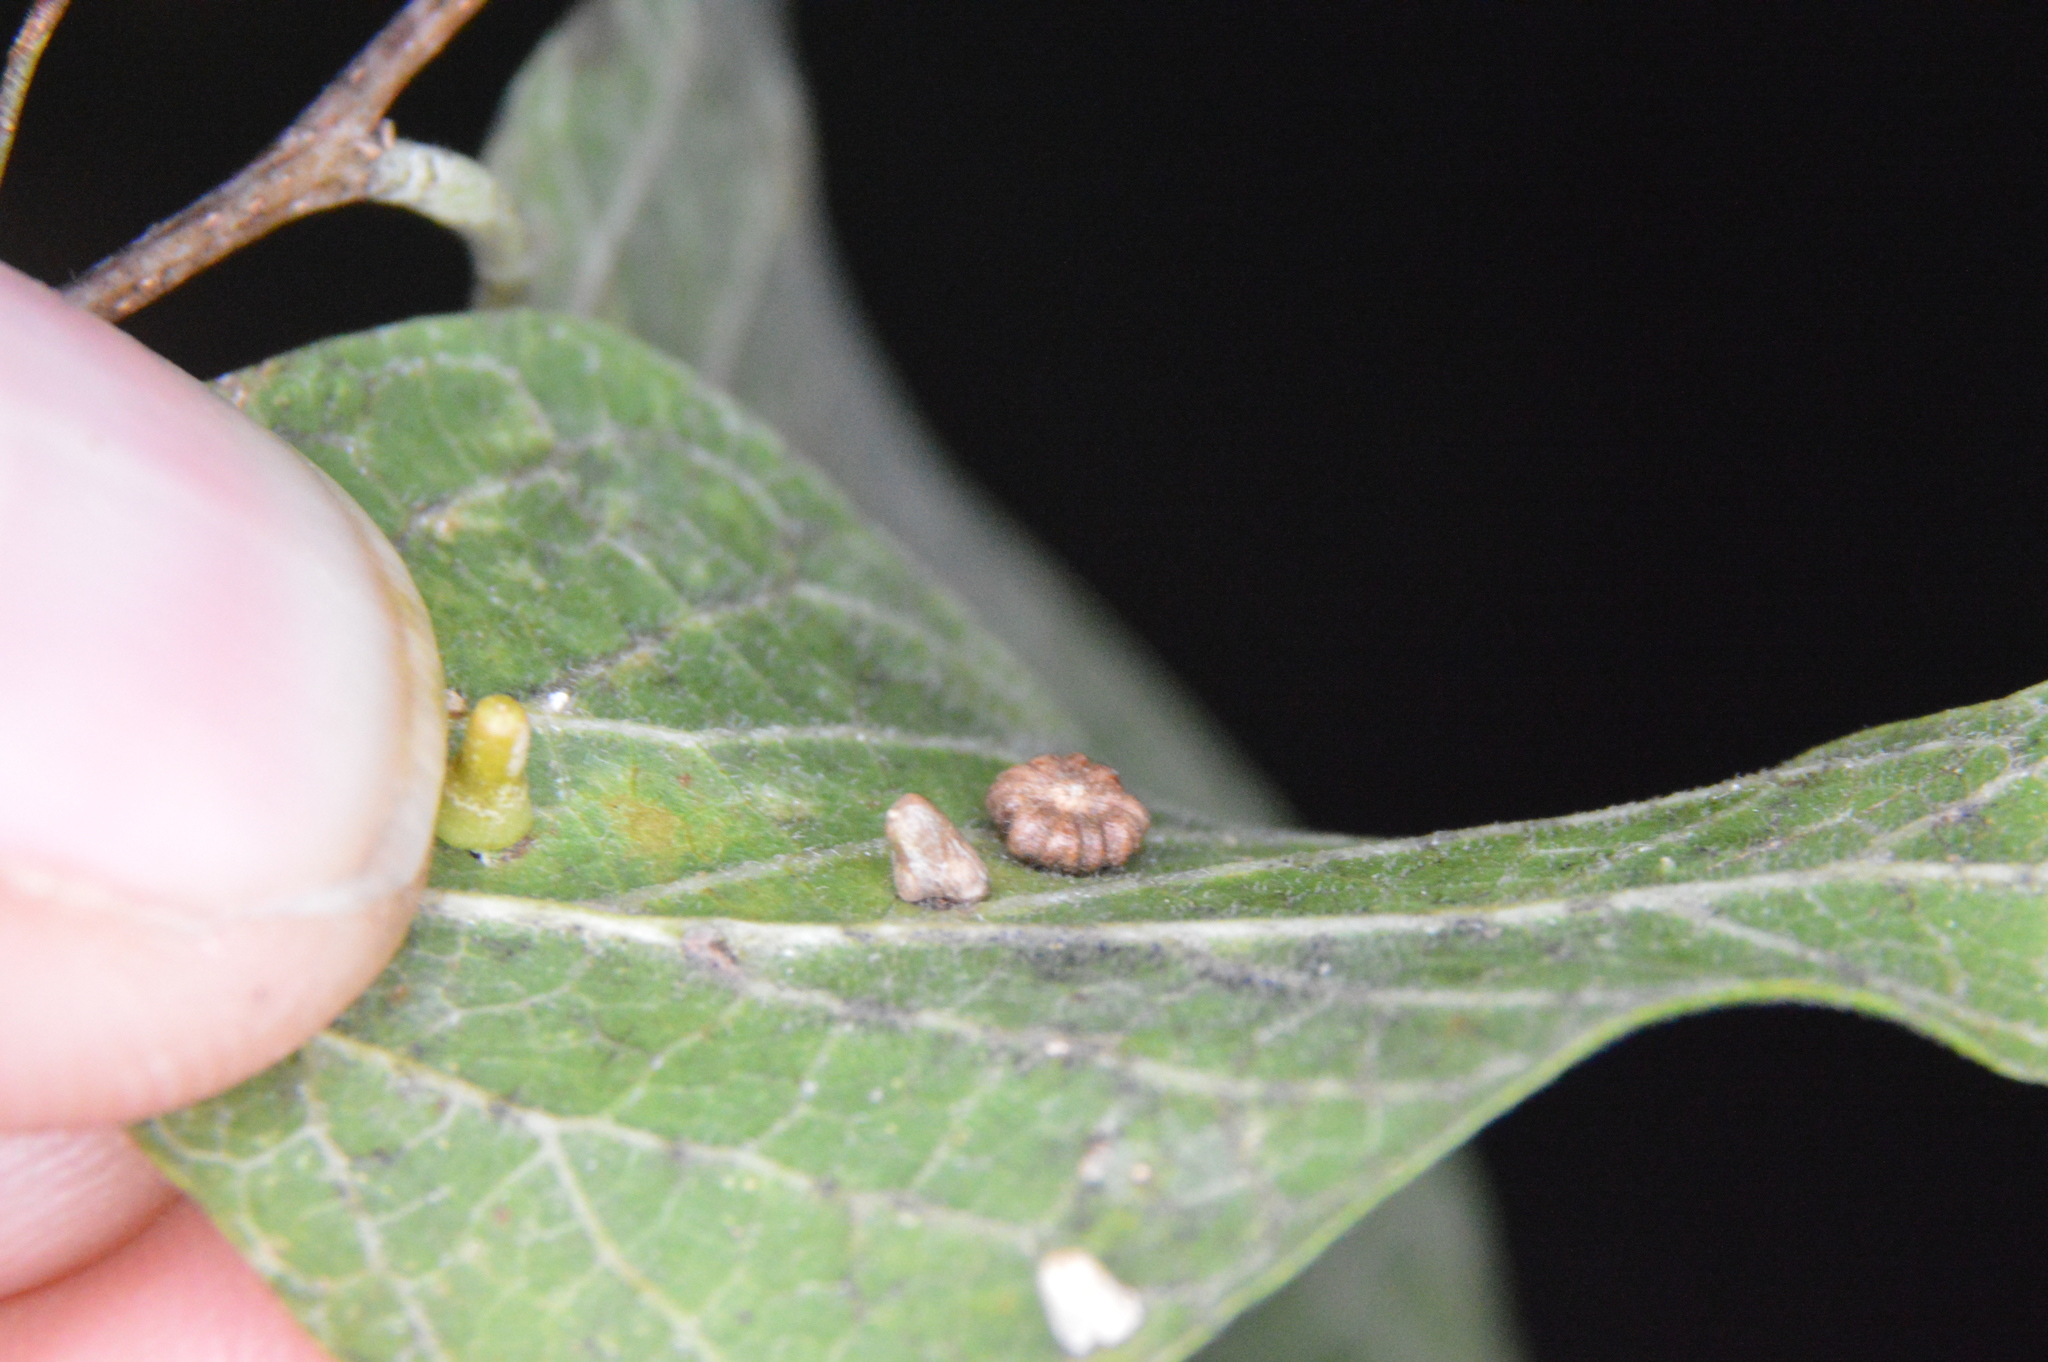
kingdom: Animalia
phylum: Arthropoda
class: Insecta
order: Diptera
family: Cecidomyiidae
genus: Celticecis
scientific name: Celticecis capsularis
